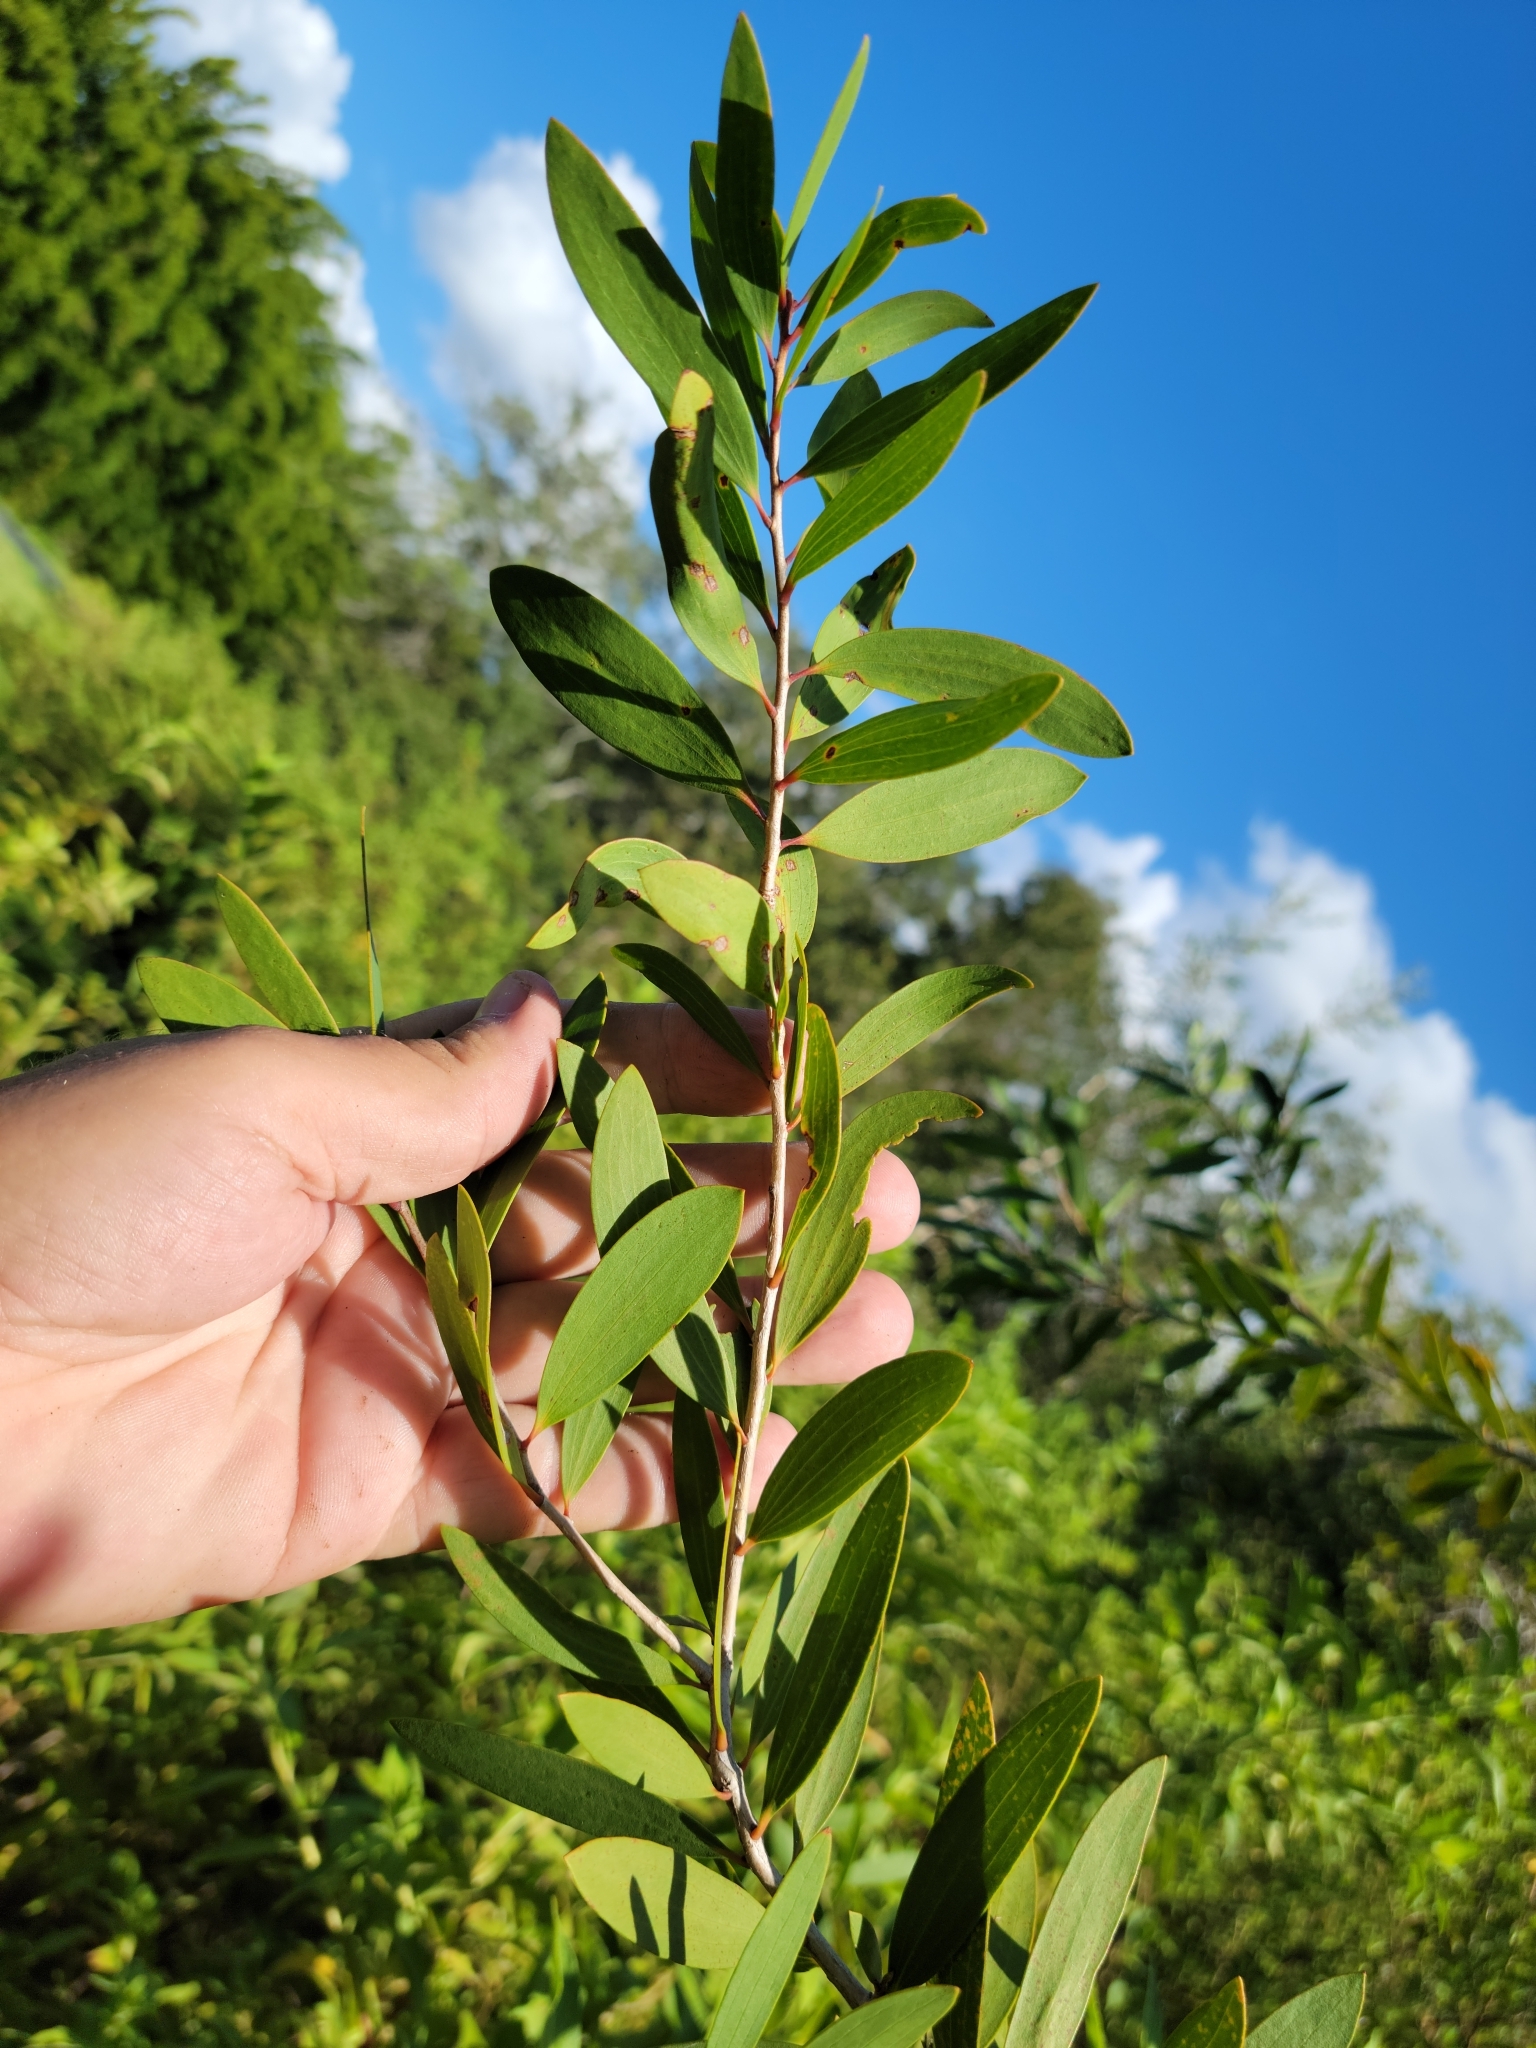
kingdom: Plantae
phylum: Tracheophyta
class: Magnoliopsida
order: Myrtales
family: Myrtaceae
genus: Melaleuca
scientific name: Melaleuca quinquenervia
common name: Punktree
